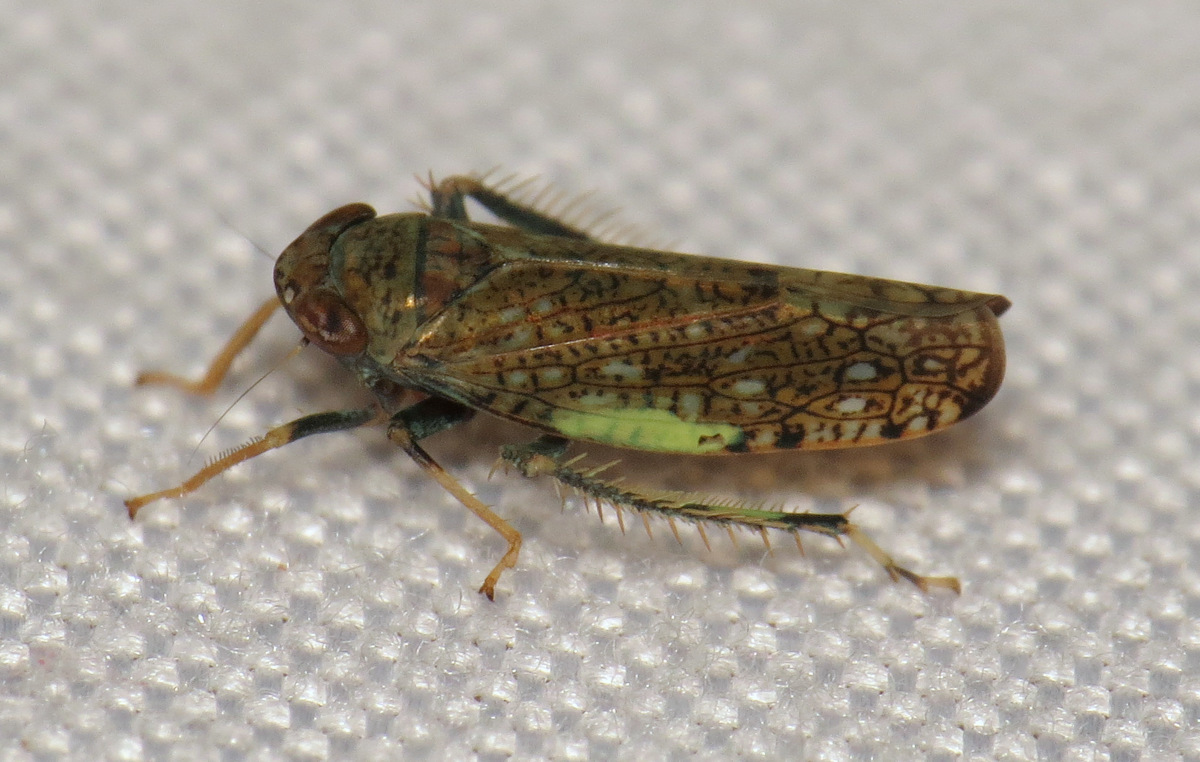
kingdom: Animalia
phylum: Arthropoda
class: Insecta
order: Hemiptera
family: Cicadellidae
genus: Orientus
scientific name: Orientus ishidae
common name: Japanese leafhopper
